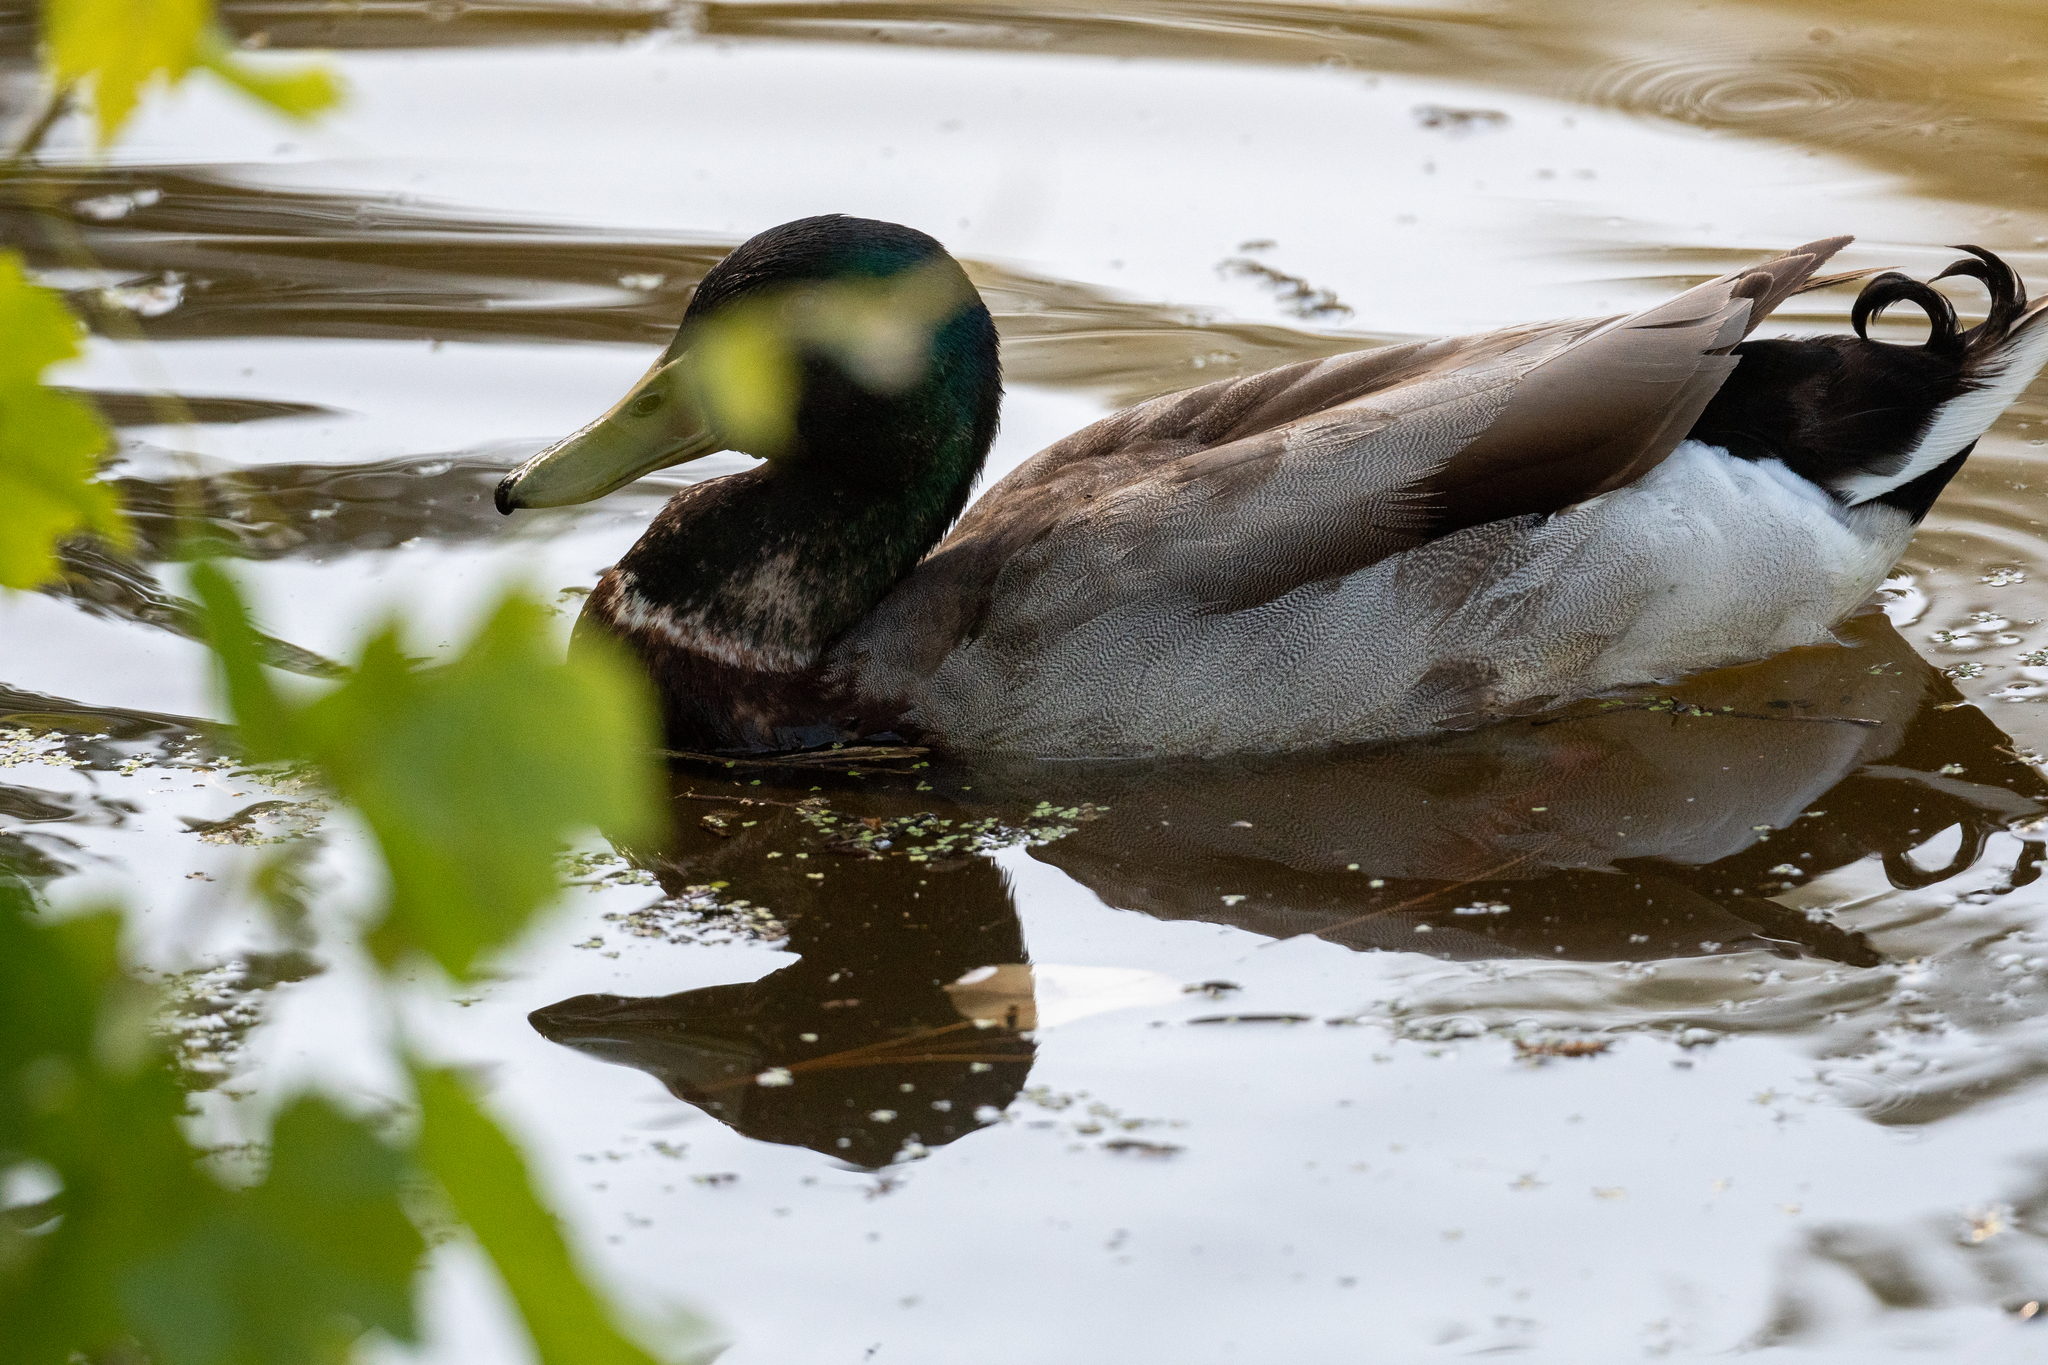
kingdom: Animalia
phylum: Chordata
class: Aves
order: Anseriformes
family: Anatidae
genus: Anas
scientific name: Anas platyrhynchos
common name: Mallard
